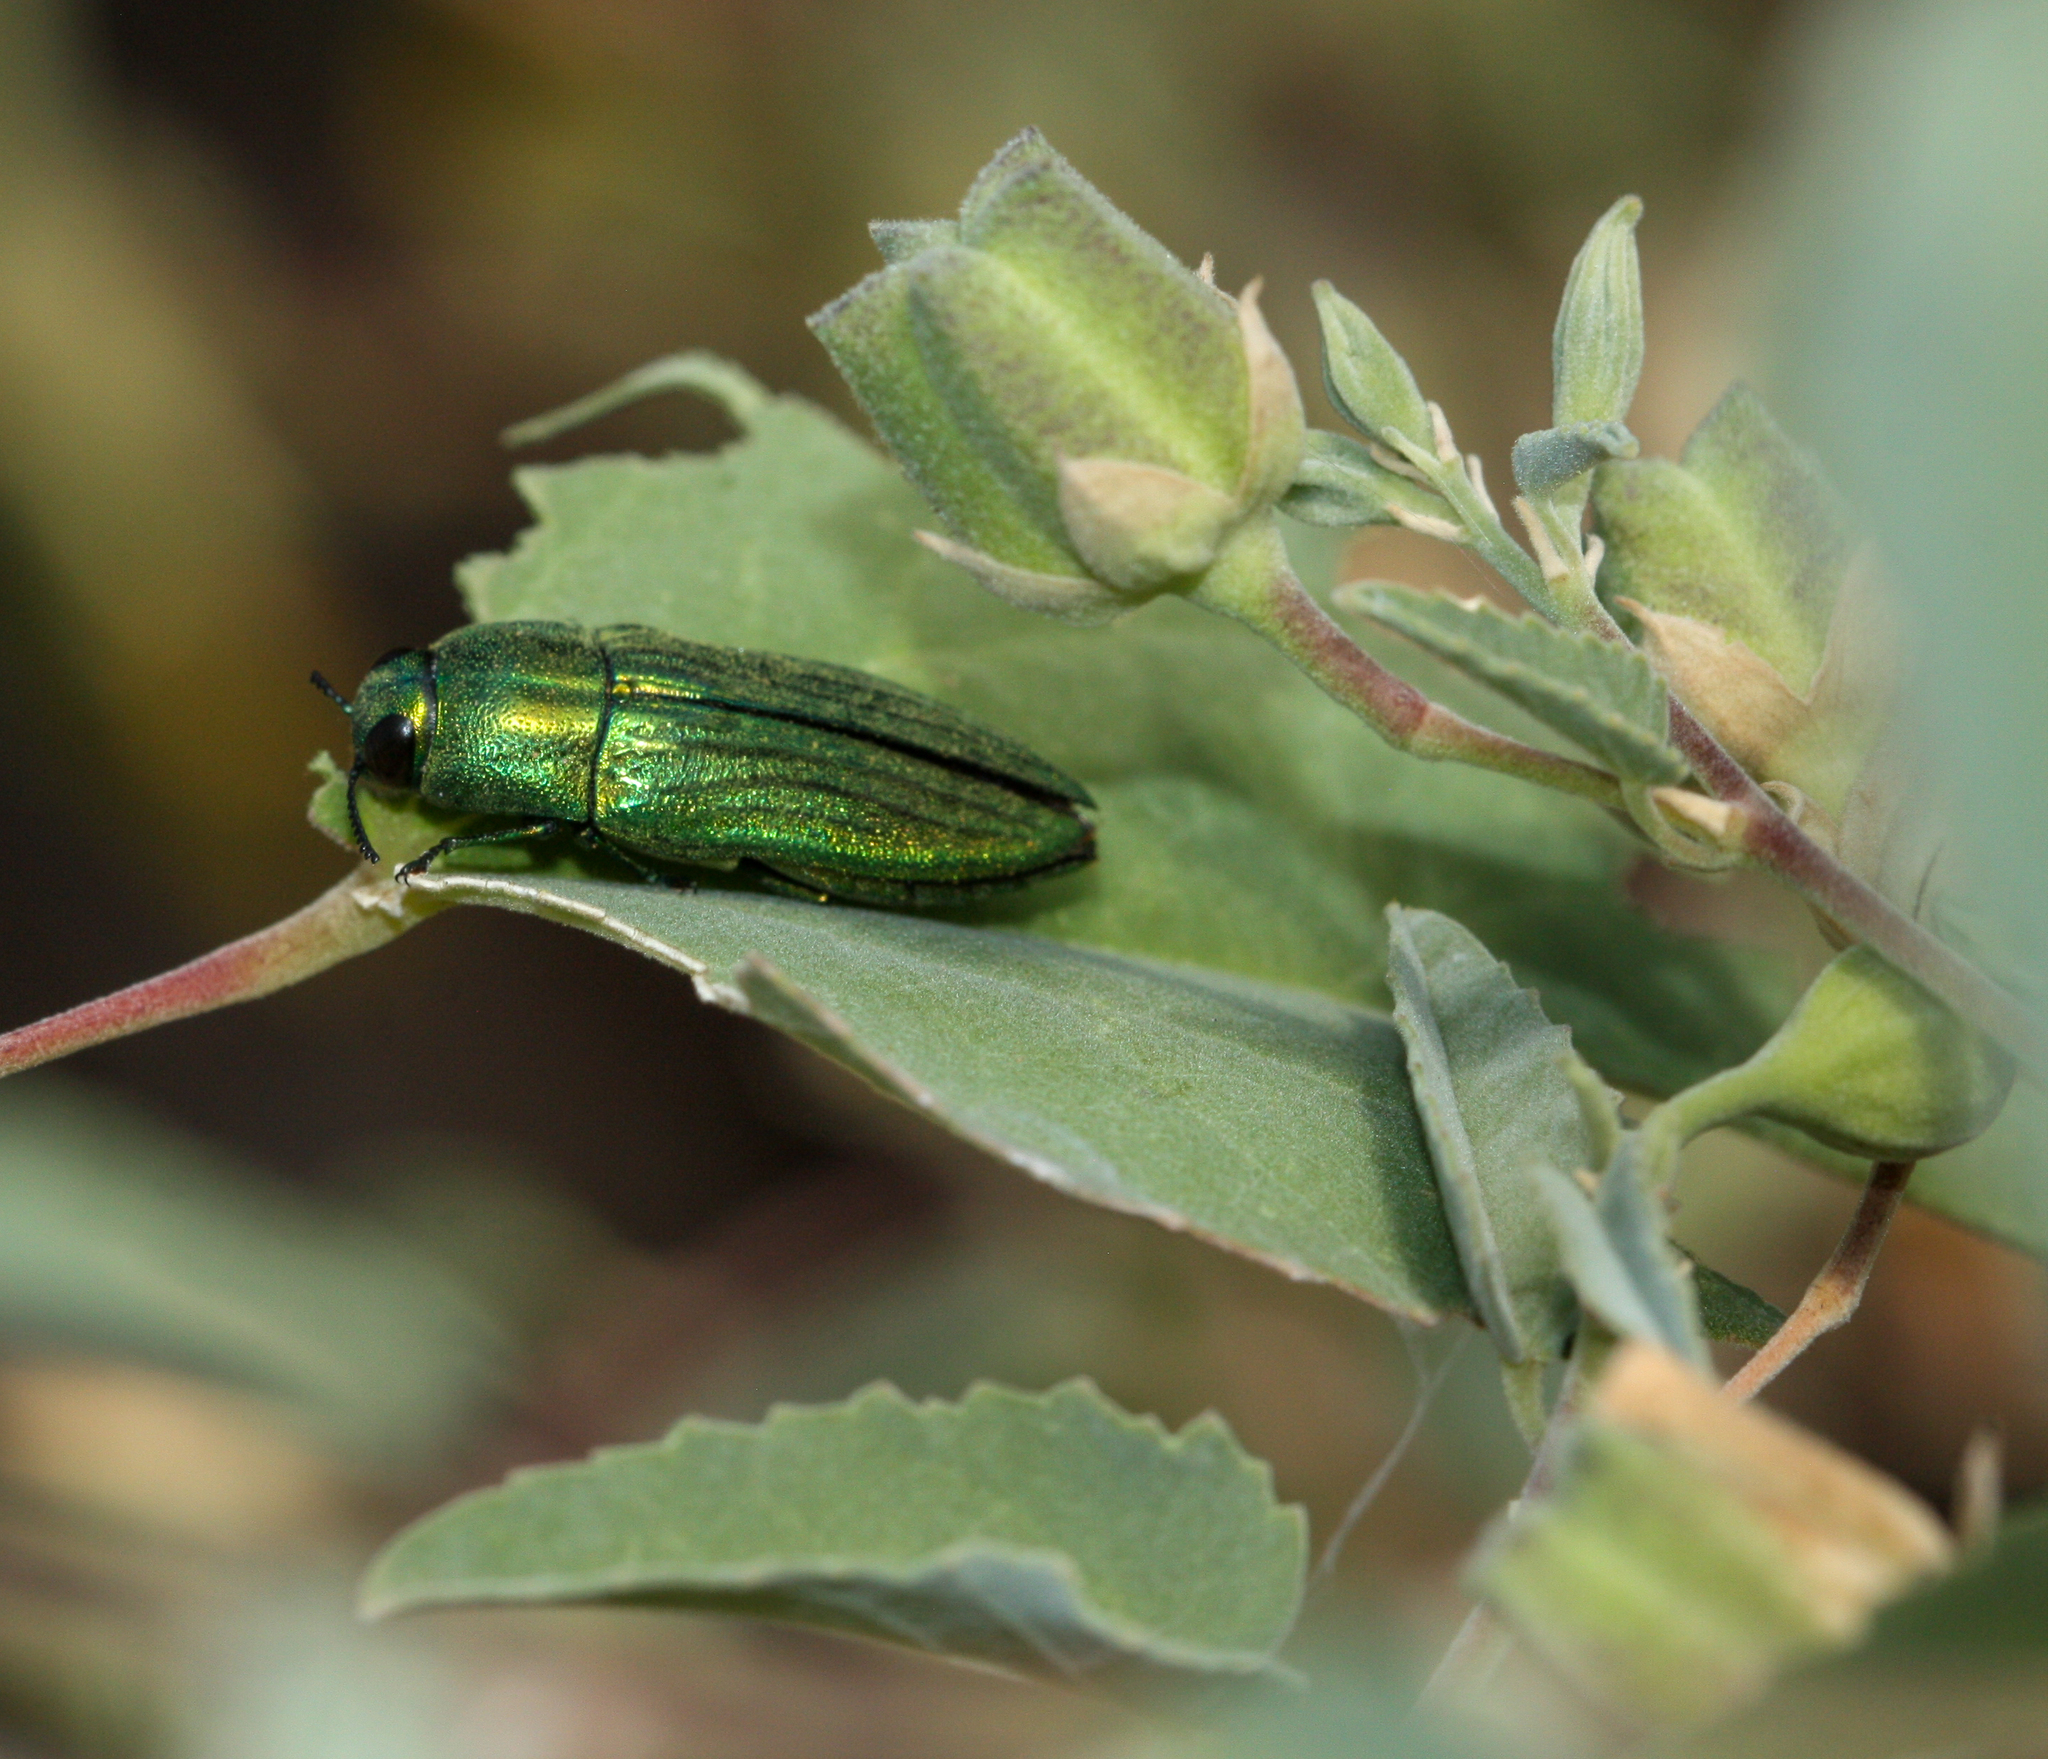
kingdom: Animalia
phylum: Arthropoda
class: Insecta
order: Coleoptera
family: Buprestidae
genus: Agaeocera
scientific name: Agaeocera scintillans
